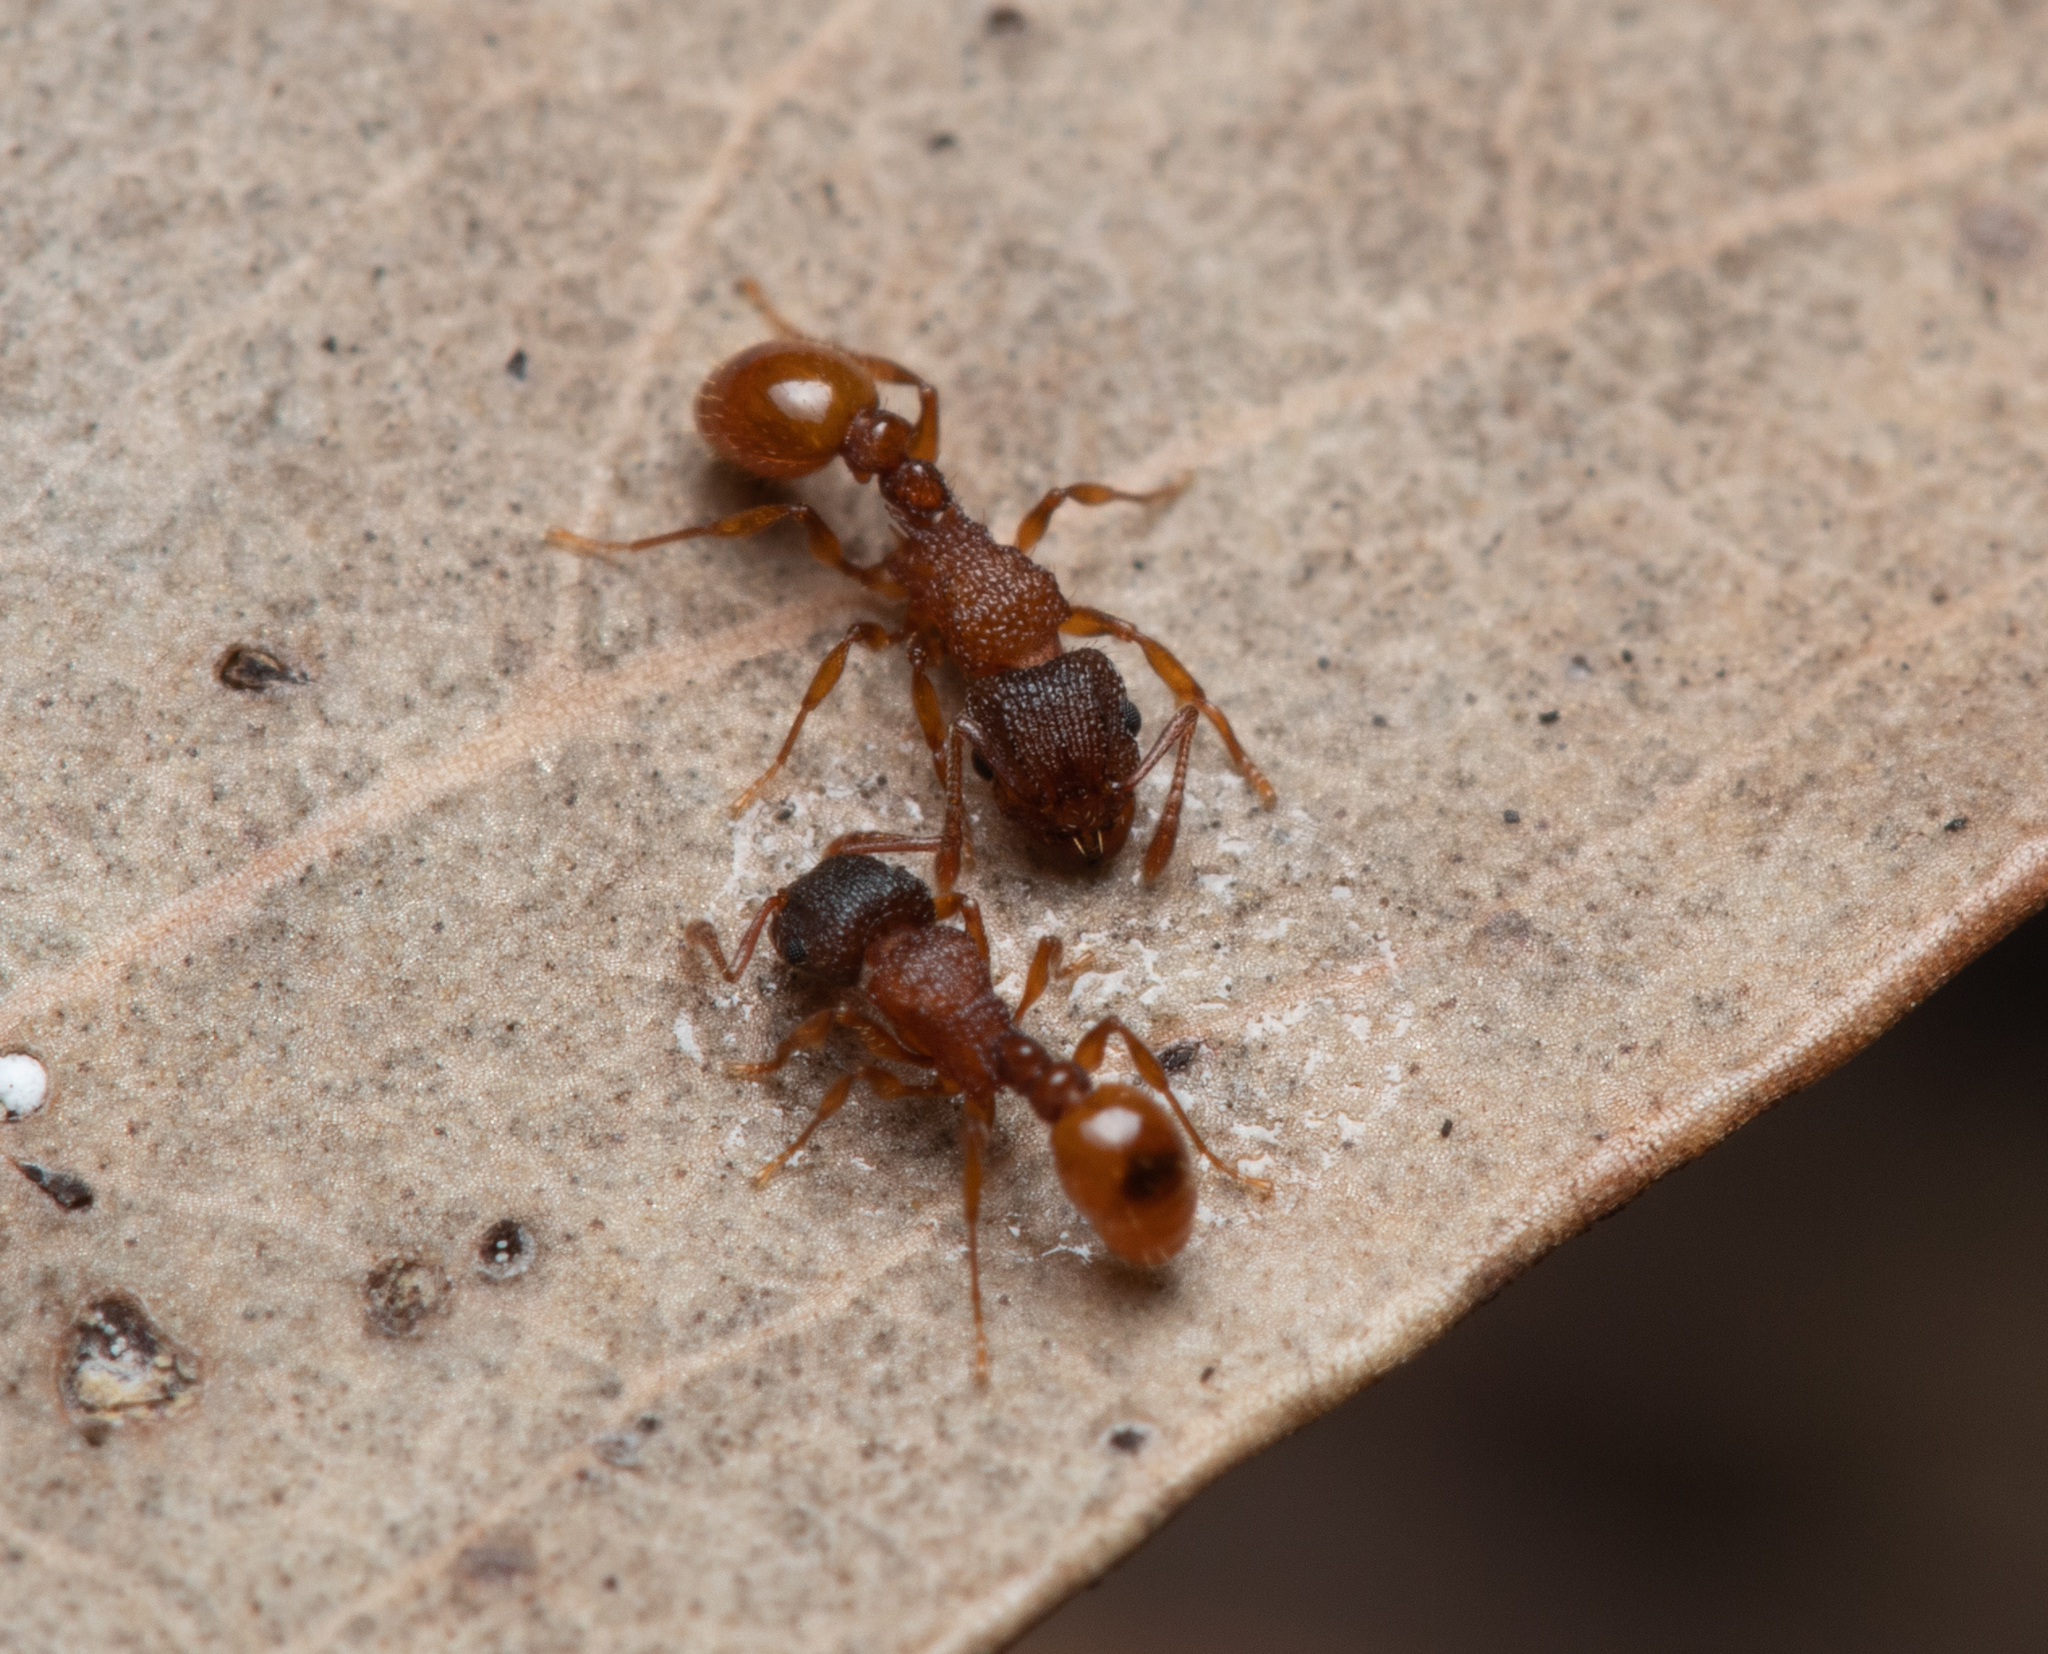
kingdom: Animalia
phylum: Arthropoda
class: Insecta
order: Hymenoptera
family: Formicidae
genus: Tetramorium
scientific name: Tetramorium fuscipes
